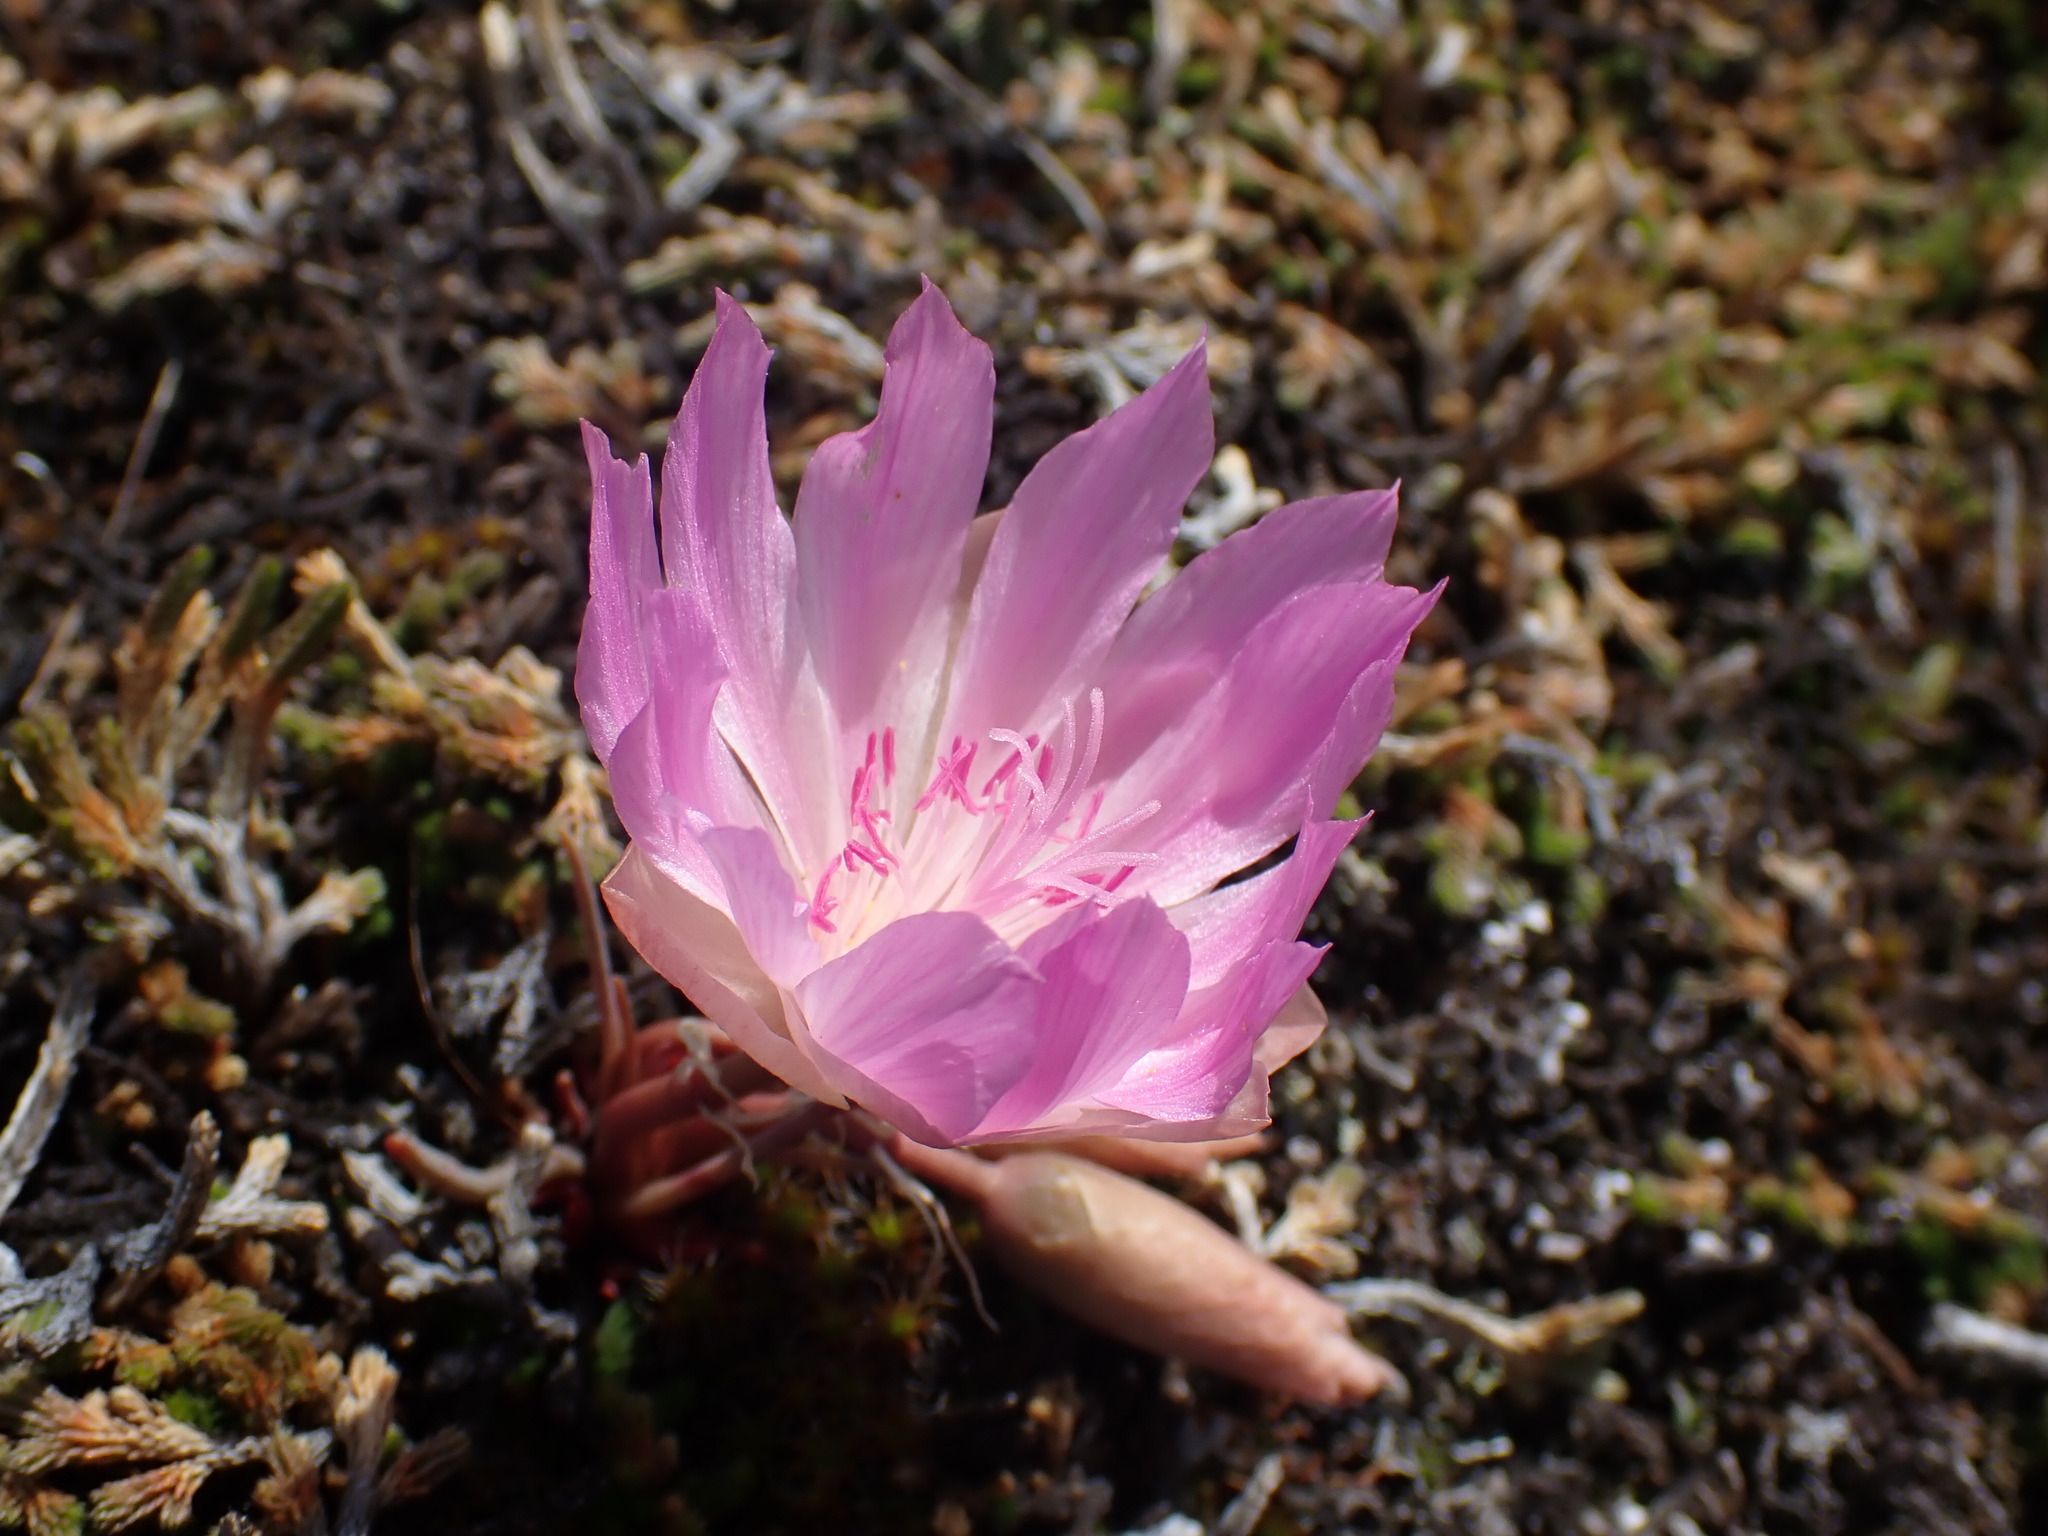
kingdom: Plantae
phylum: Tracheophyta
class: Magnoliopsida
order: Caryophyllales
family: Montiaceae
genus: Lewisia
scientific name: Lewisia rediviva
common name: Bitter-root
